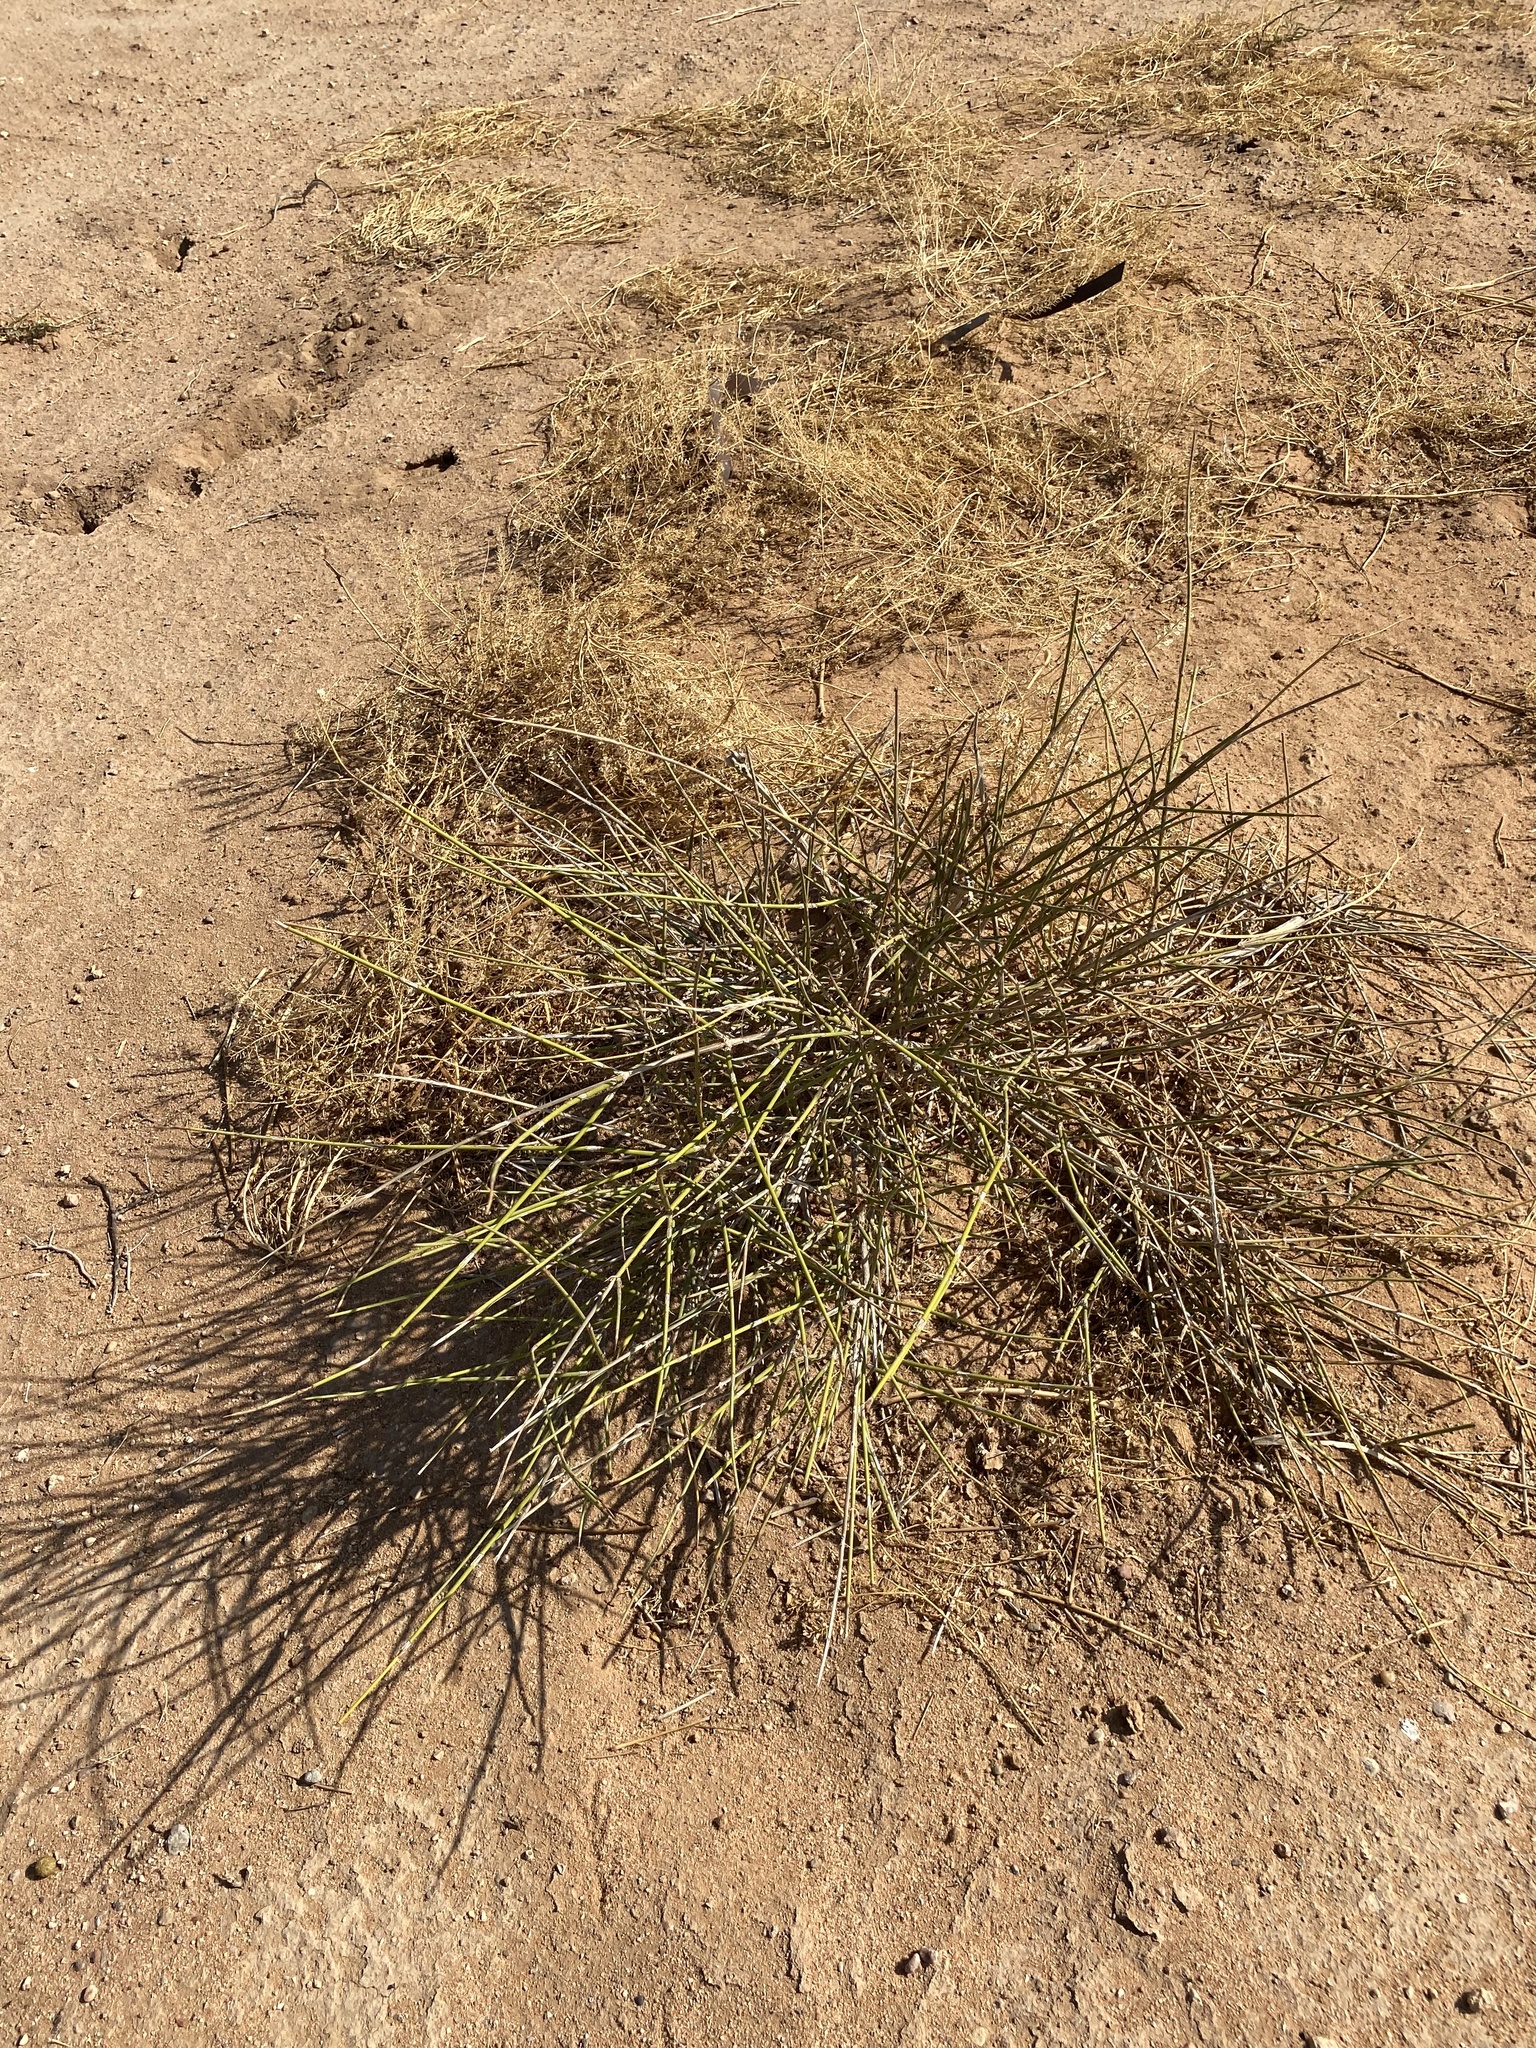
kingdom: Plantae
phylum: Tracheophyta
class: Gnetopsida
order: Ephedrales
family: Ephedraceae
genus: Ephedra
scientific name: Ephedra trifurca
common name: Mexican-tea
